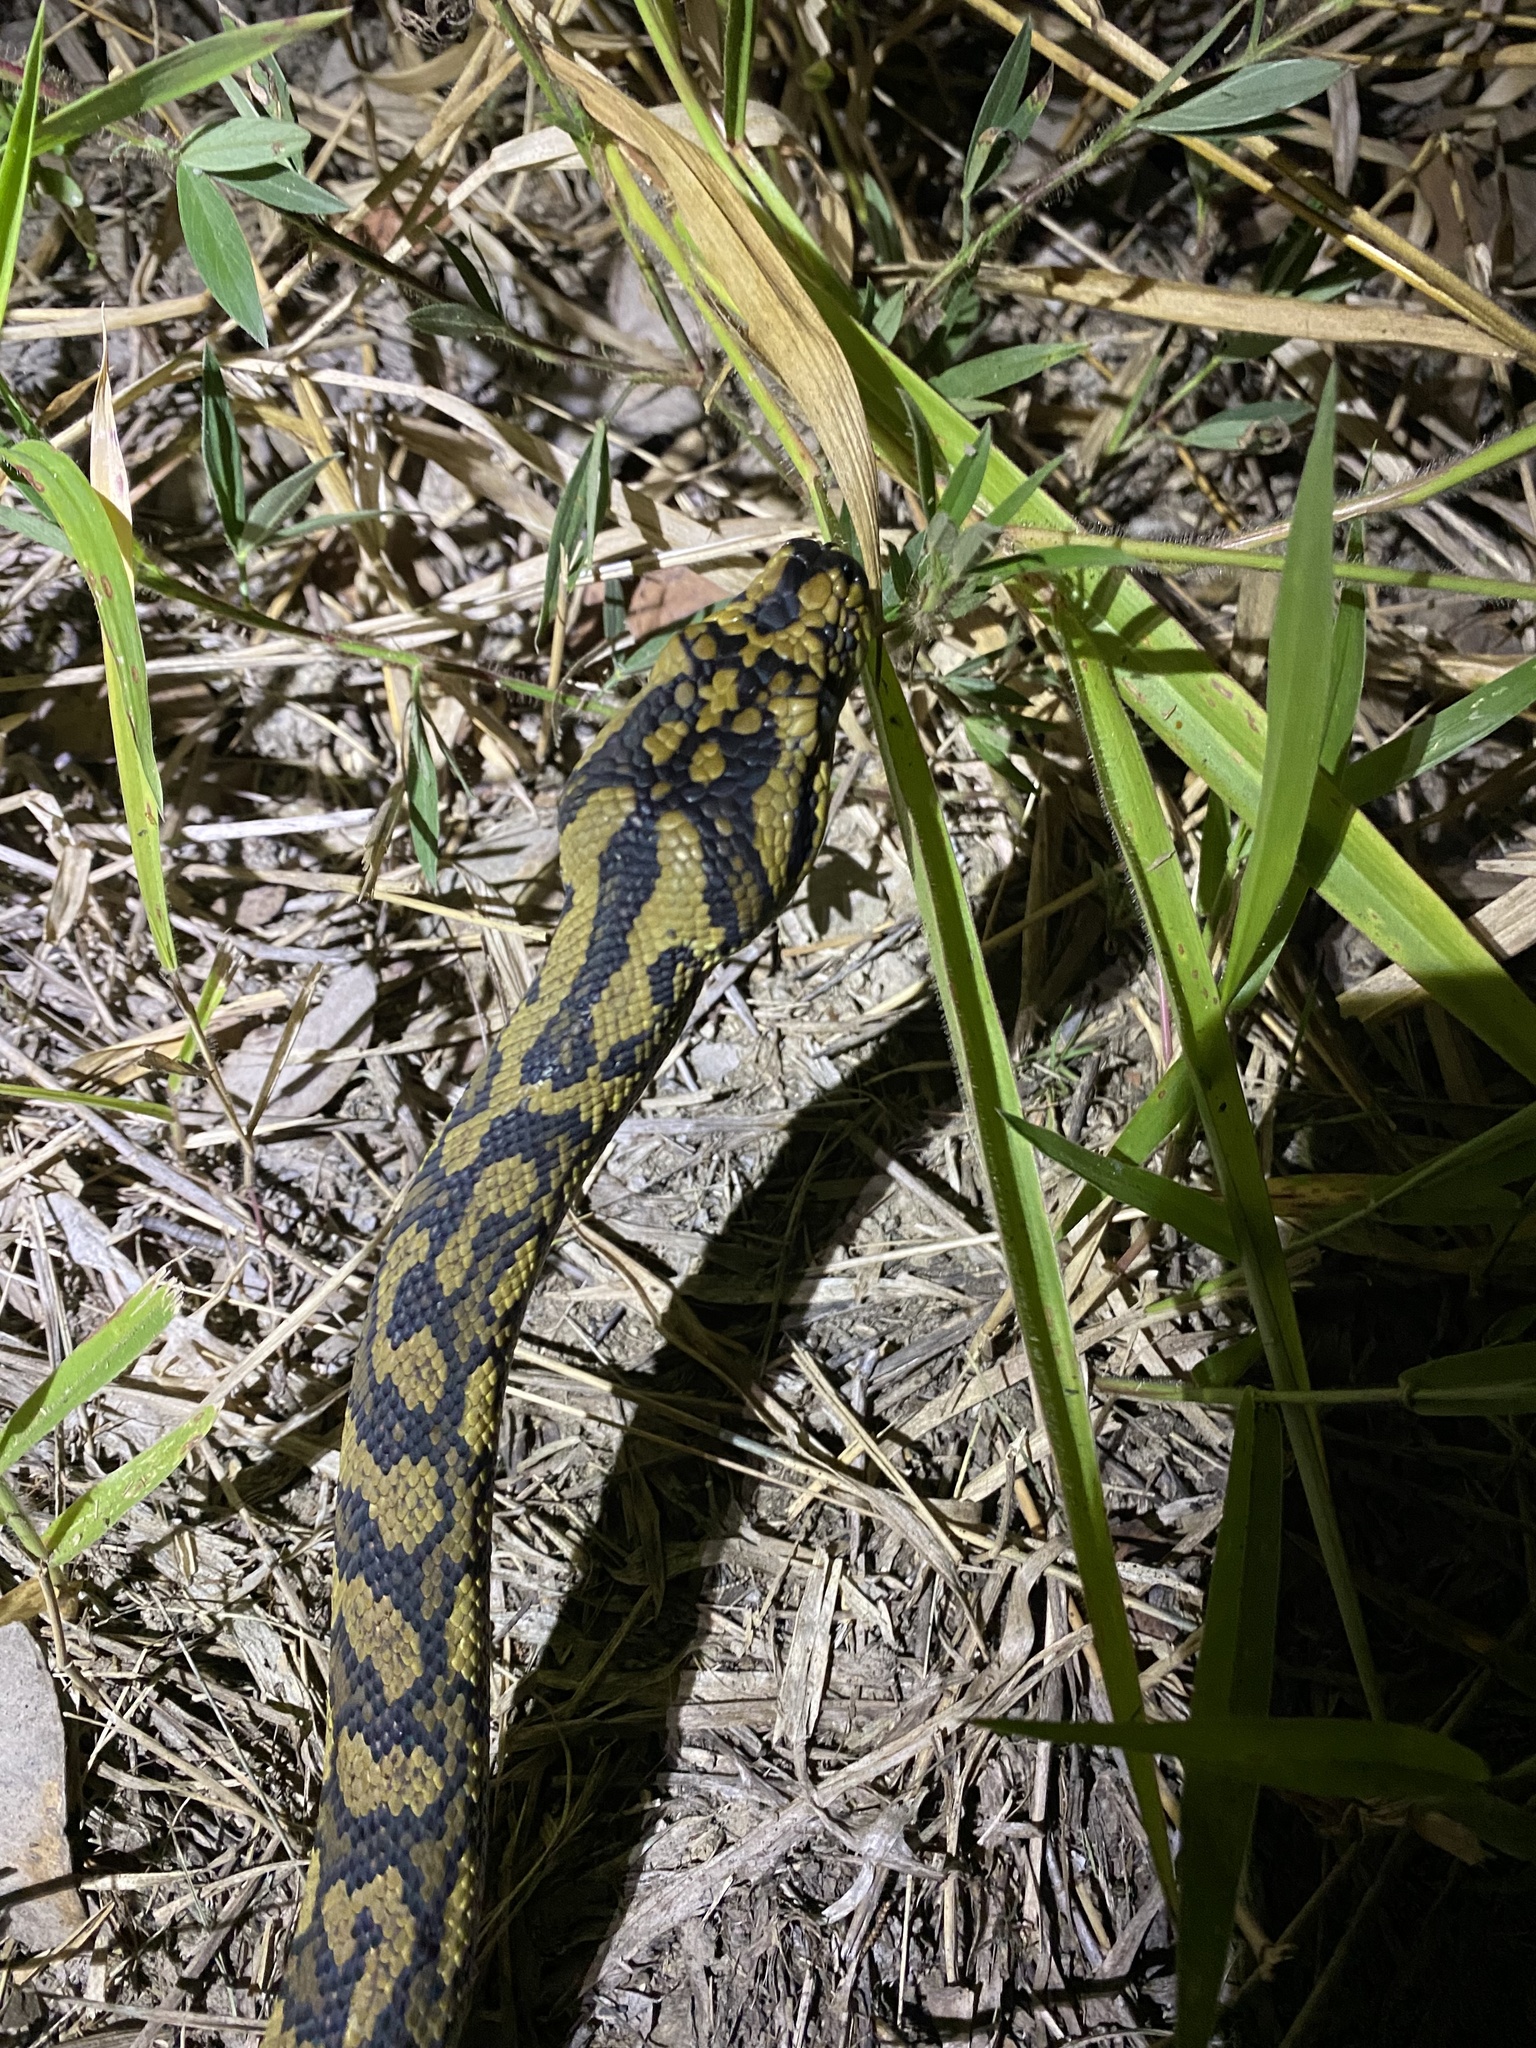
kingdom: Animalia
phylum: Chordata
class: Squamata
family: Pythonidae
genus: Morelia
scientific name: Morelia spilota
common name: Carpet python
